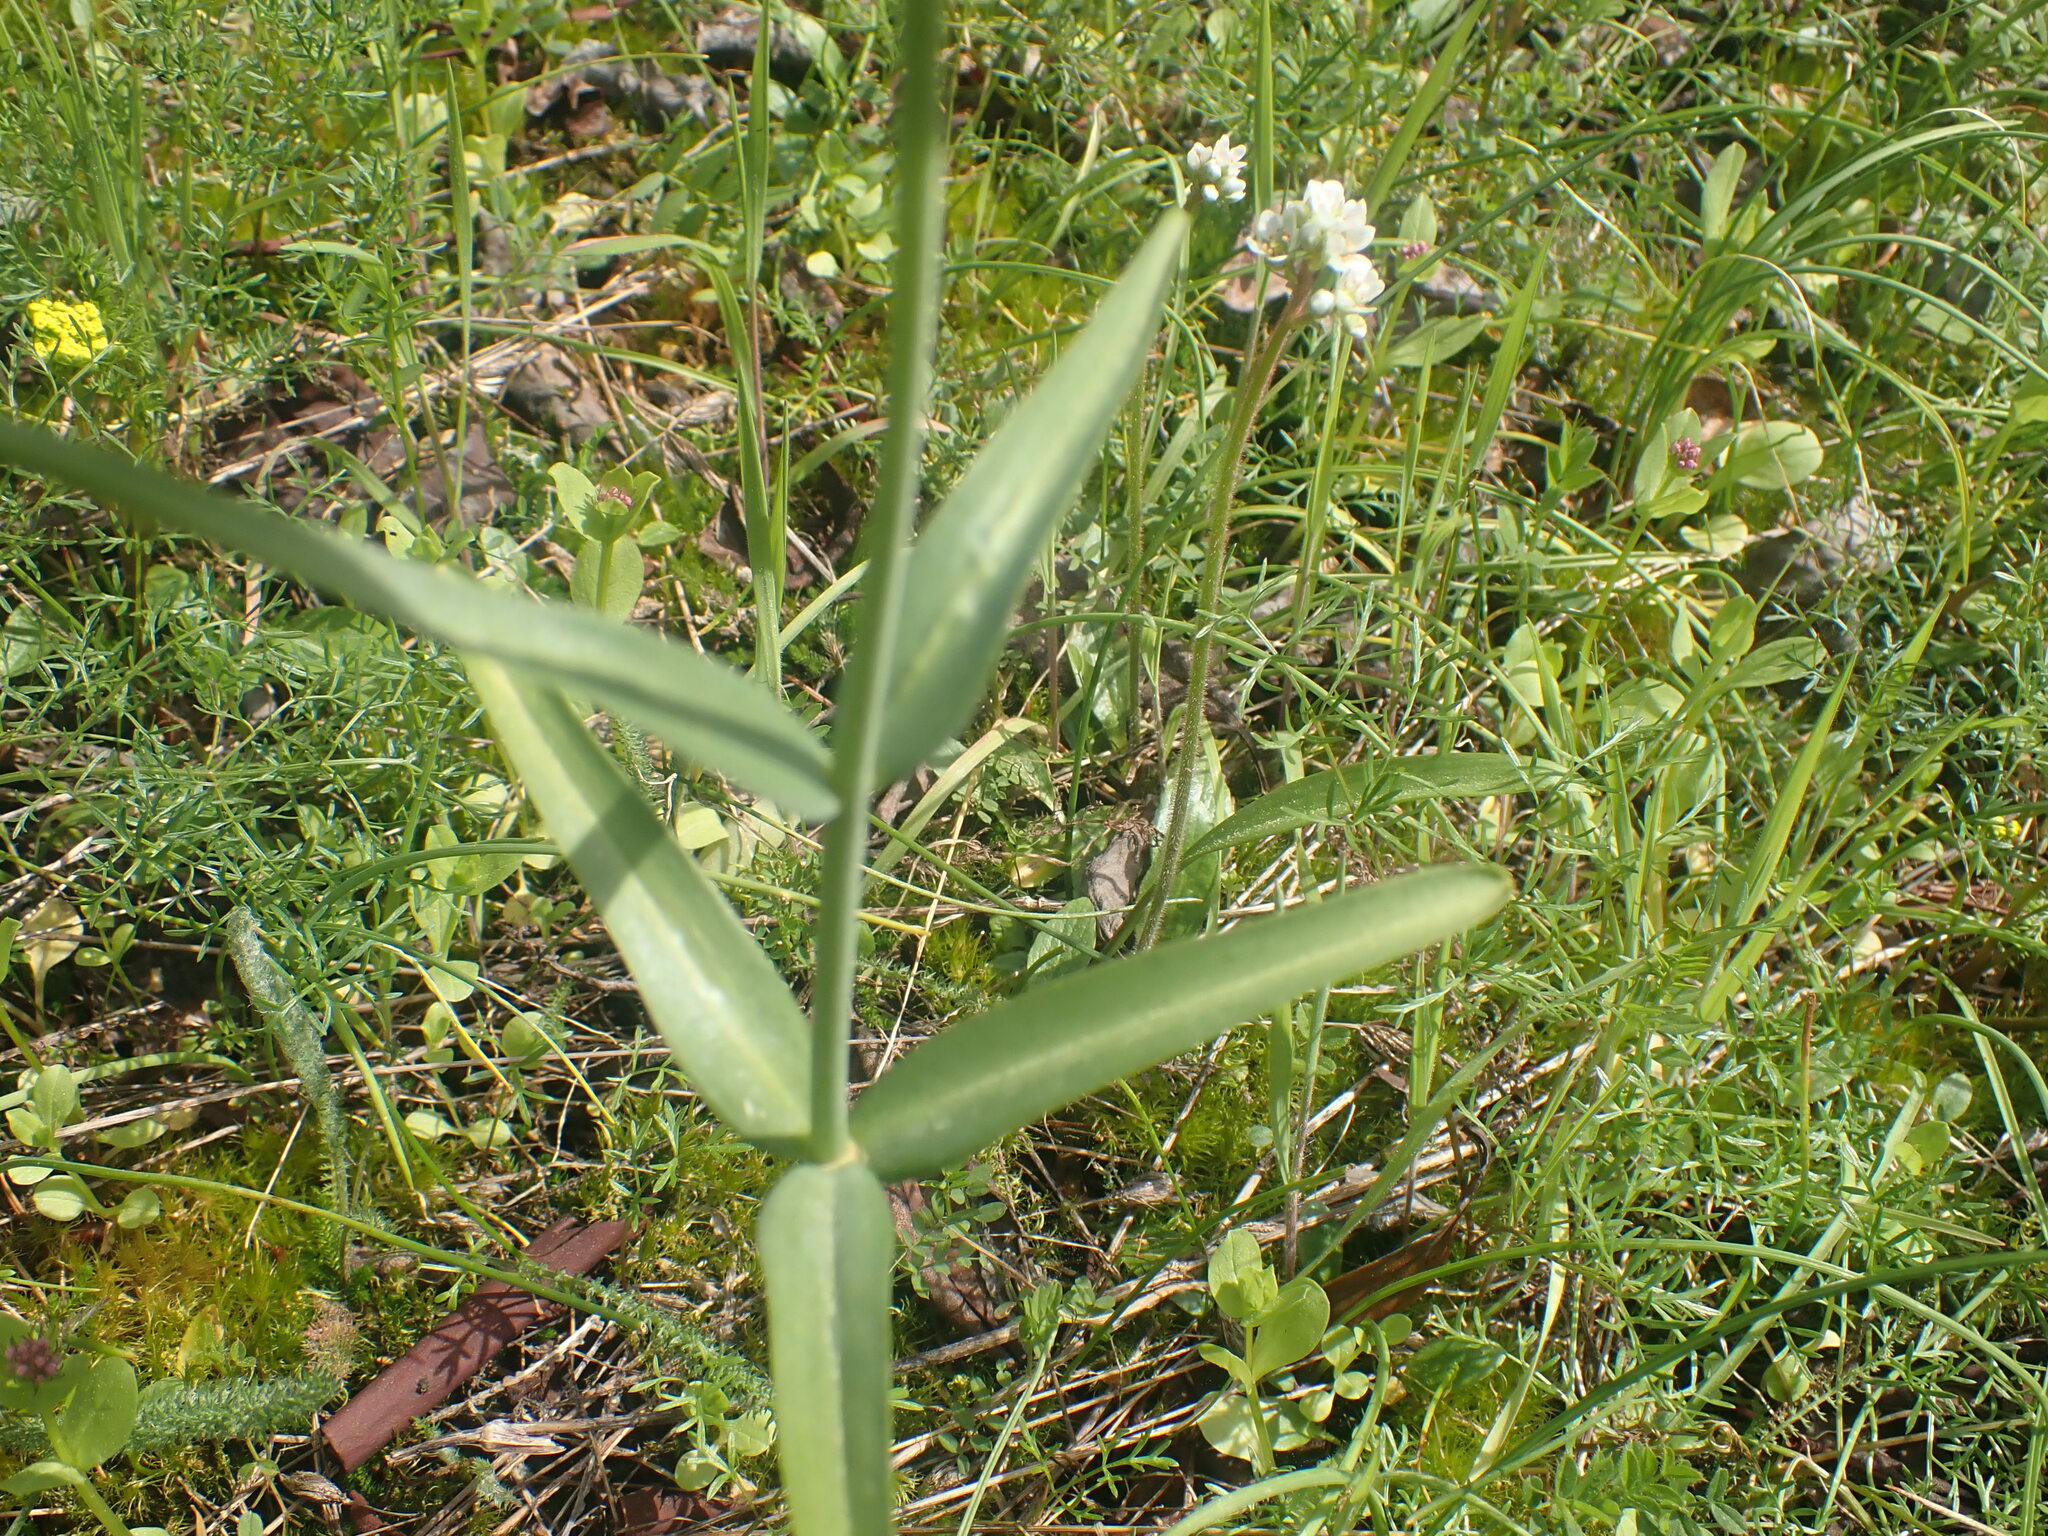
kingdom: Plantae
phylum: Tracheophyta
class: Liliopsida
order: Liliales
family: Liliaceae
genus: Fritillaria
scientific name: Fritillaria affinis
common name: Ojai fritillary
